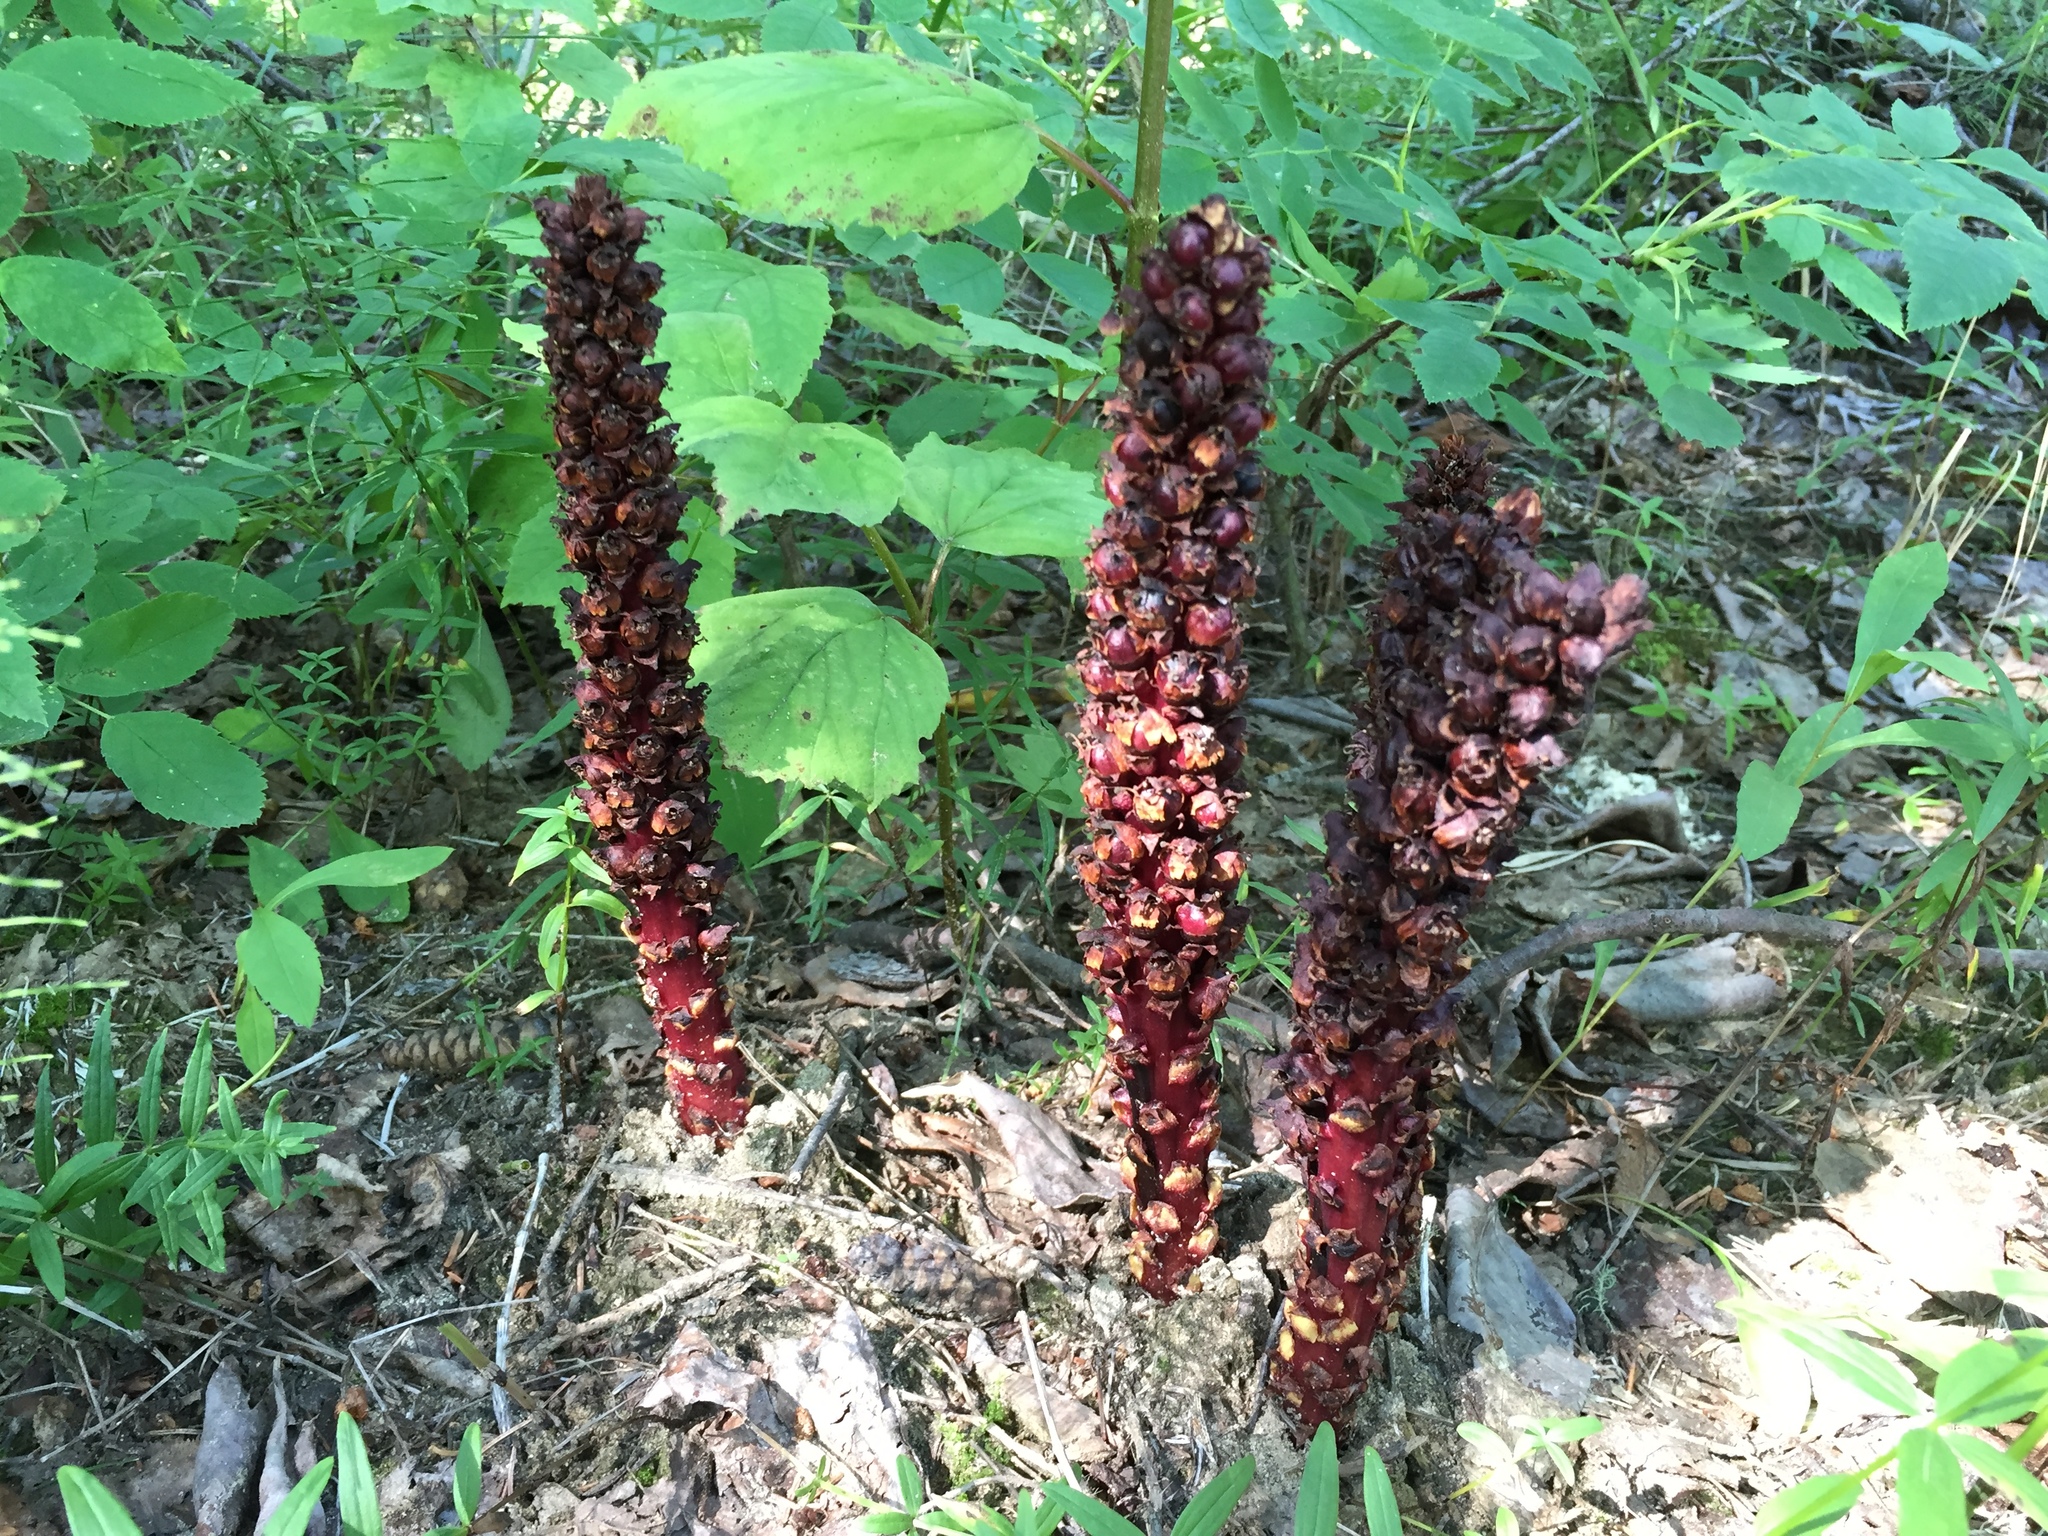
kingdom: Plantae
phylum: Tracheophyta
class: Magnoliopsida
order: Lamiales
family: Orobanchaceae
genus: Boschniakia
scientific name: Boschniakia rossica
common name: Poque
